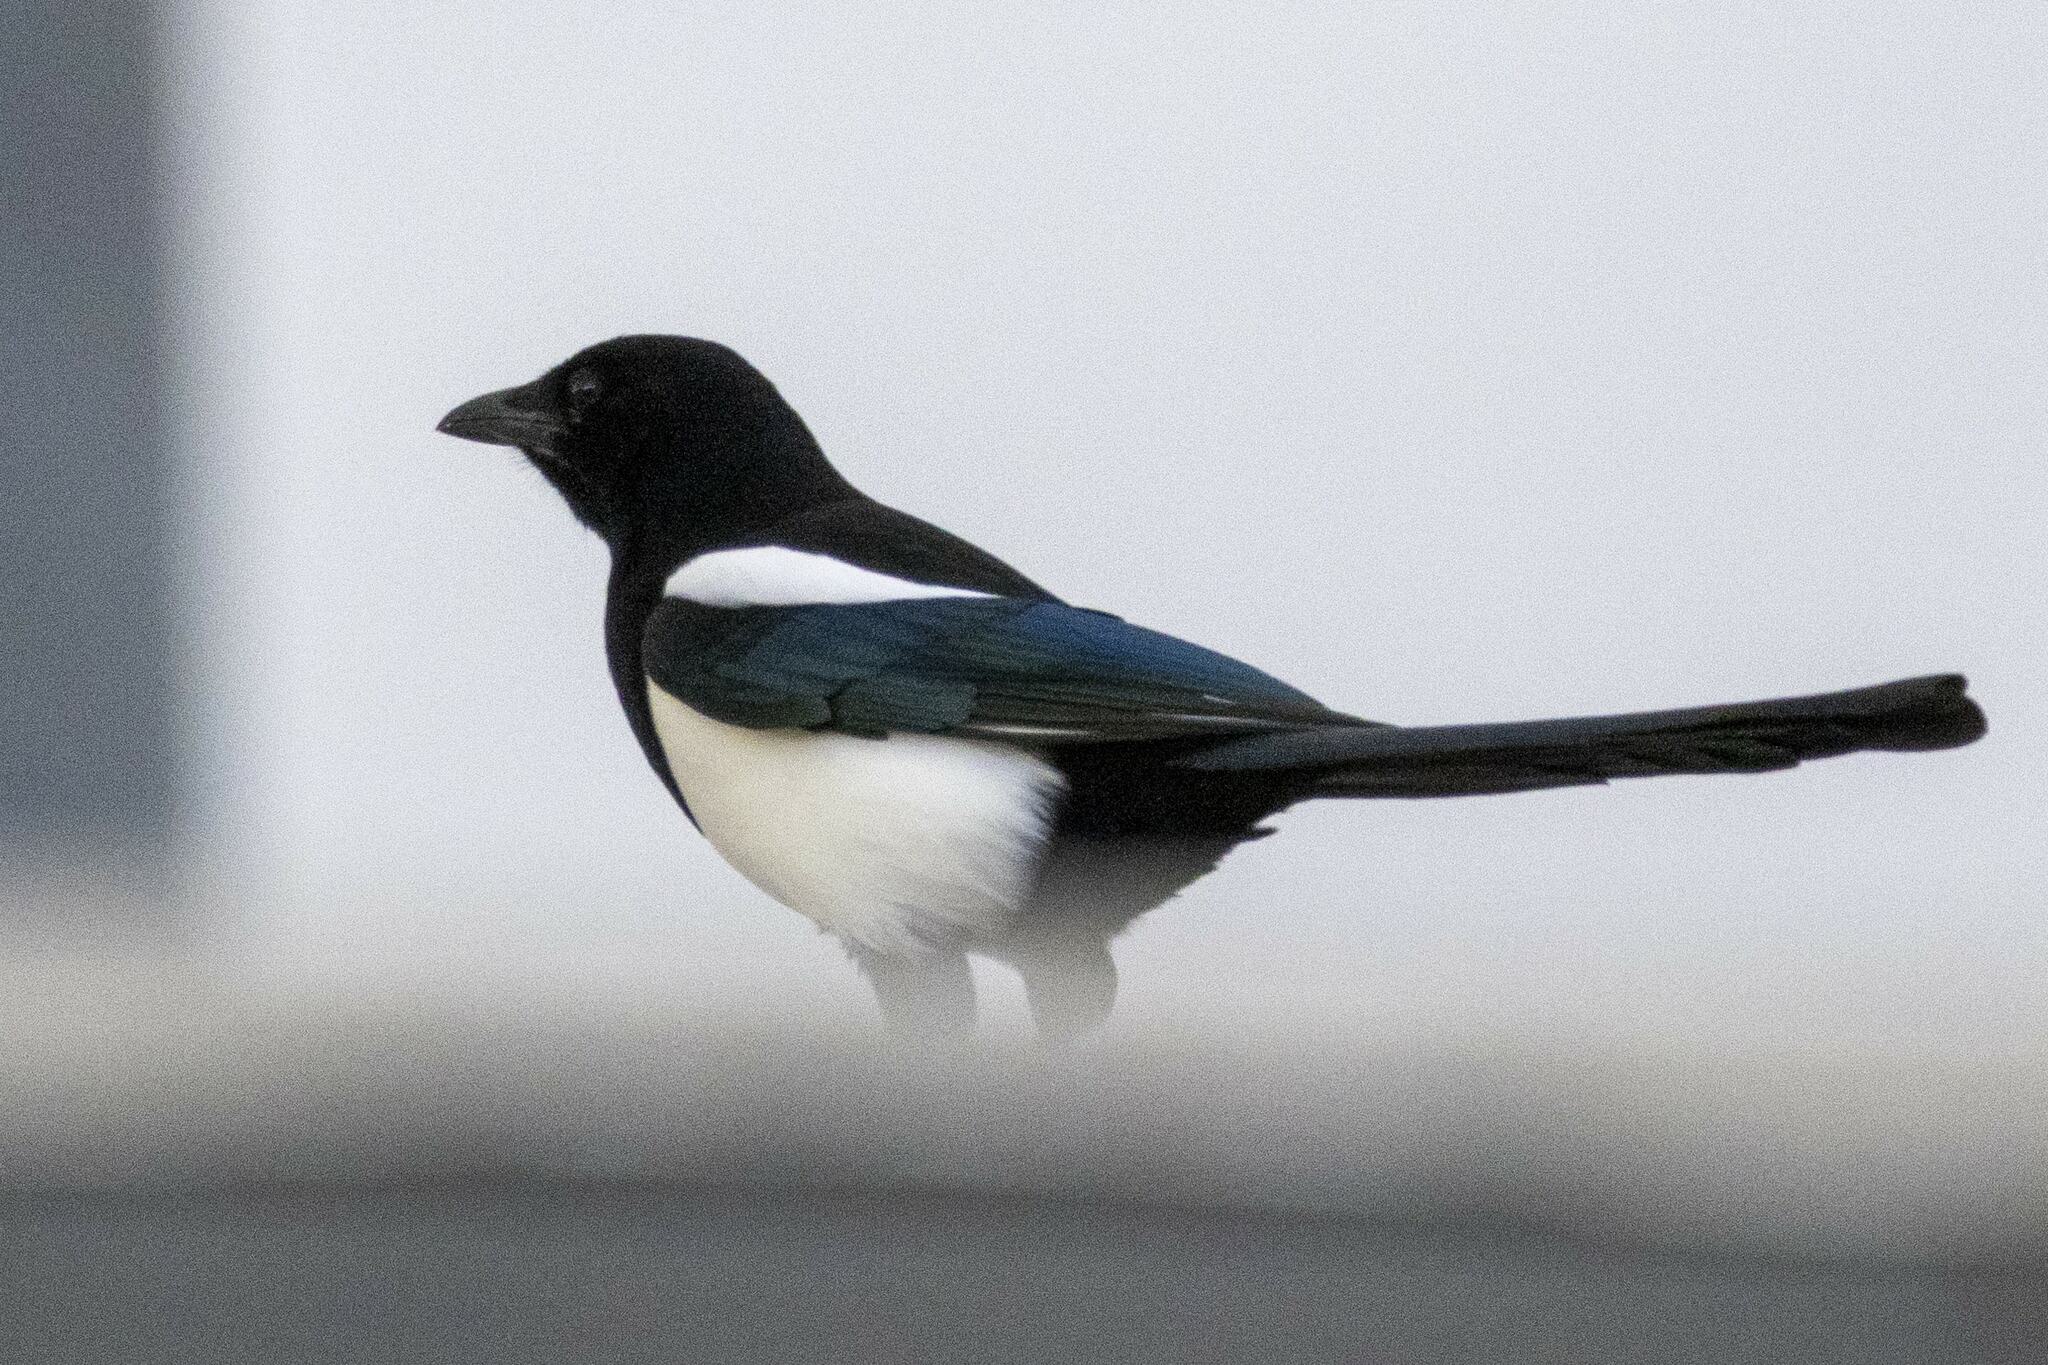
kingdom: Animalia
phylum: Chordata
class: Aves
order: Passeriformes
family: Corvidae
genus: Pica
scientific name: Pica pica
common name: Eurasian magpie
